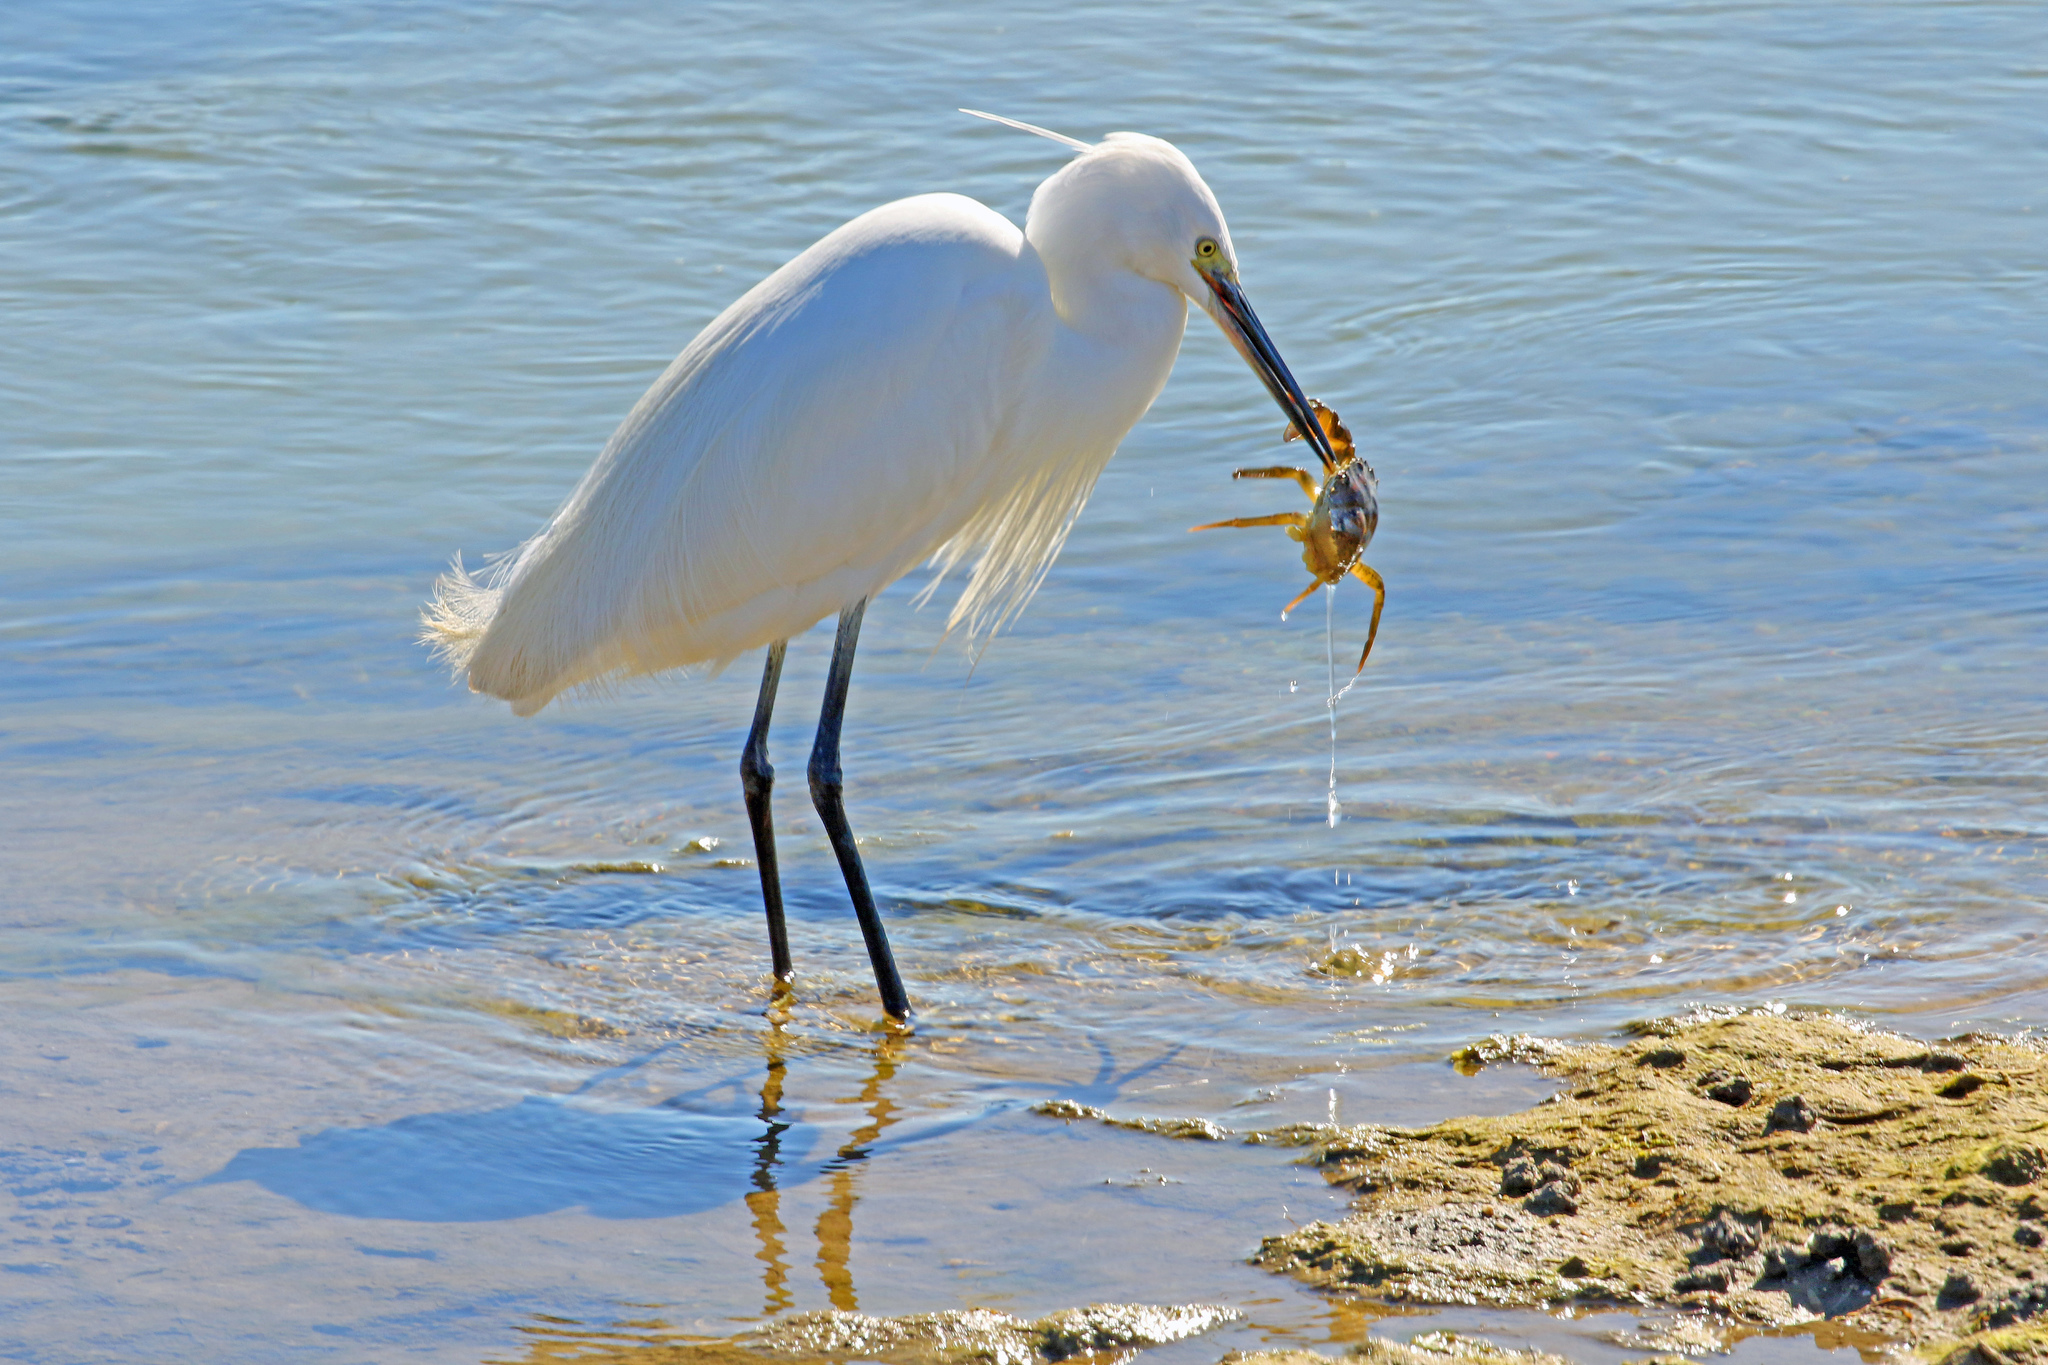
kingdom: Animalia
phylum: Chordata
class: Aves
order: Pelecaniformes
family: Ardeidae
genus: Egretta
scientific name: Egretta garzetta
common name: Little egret
